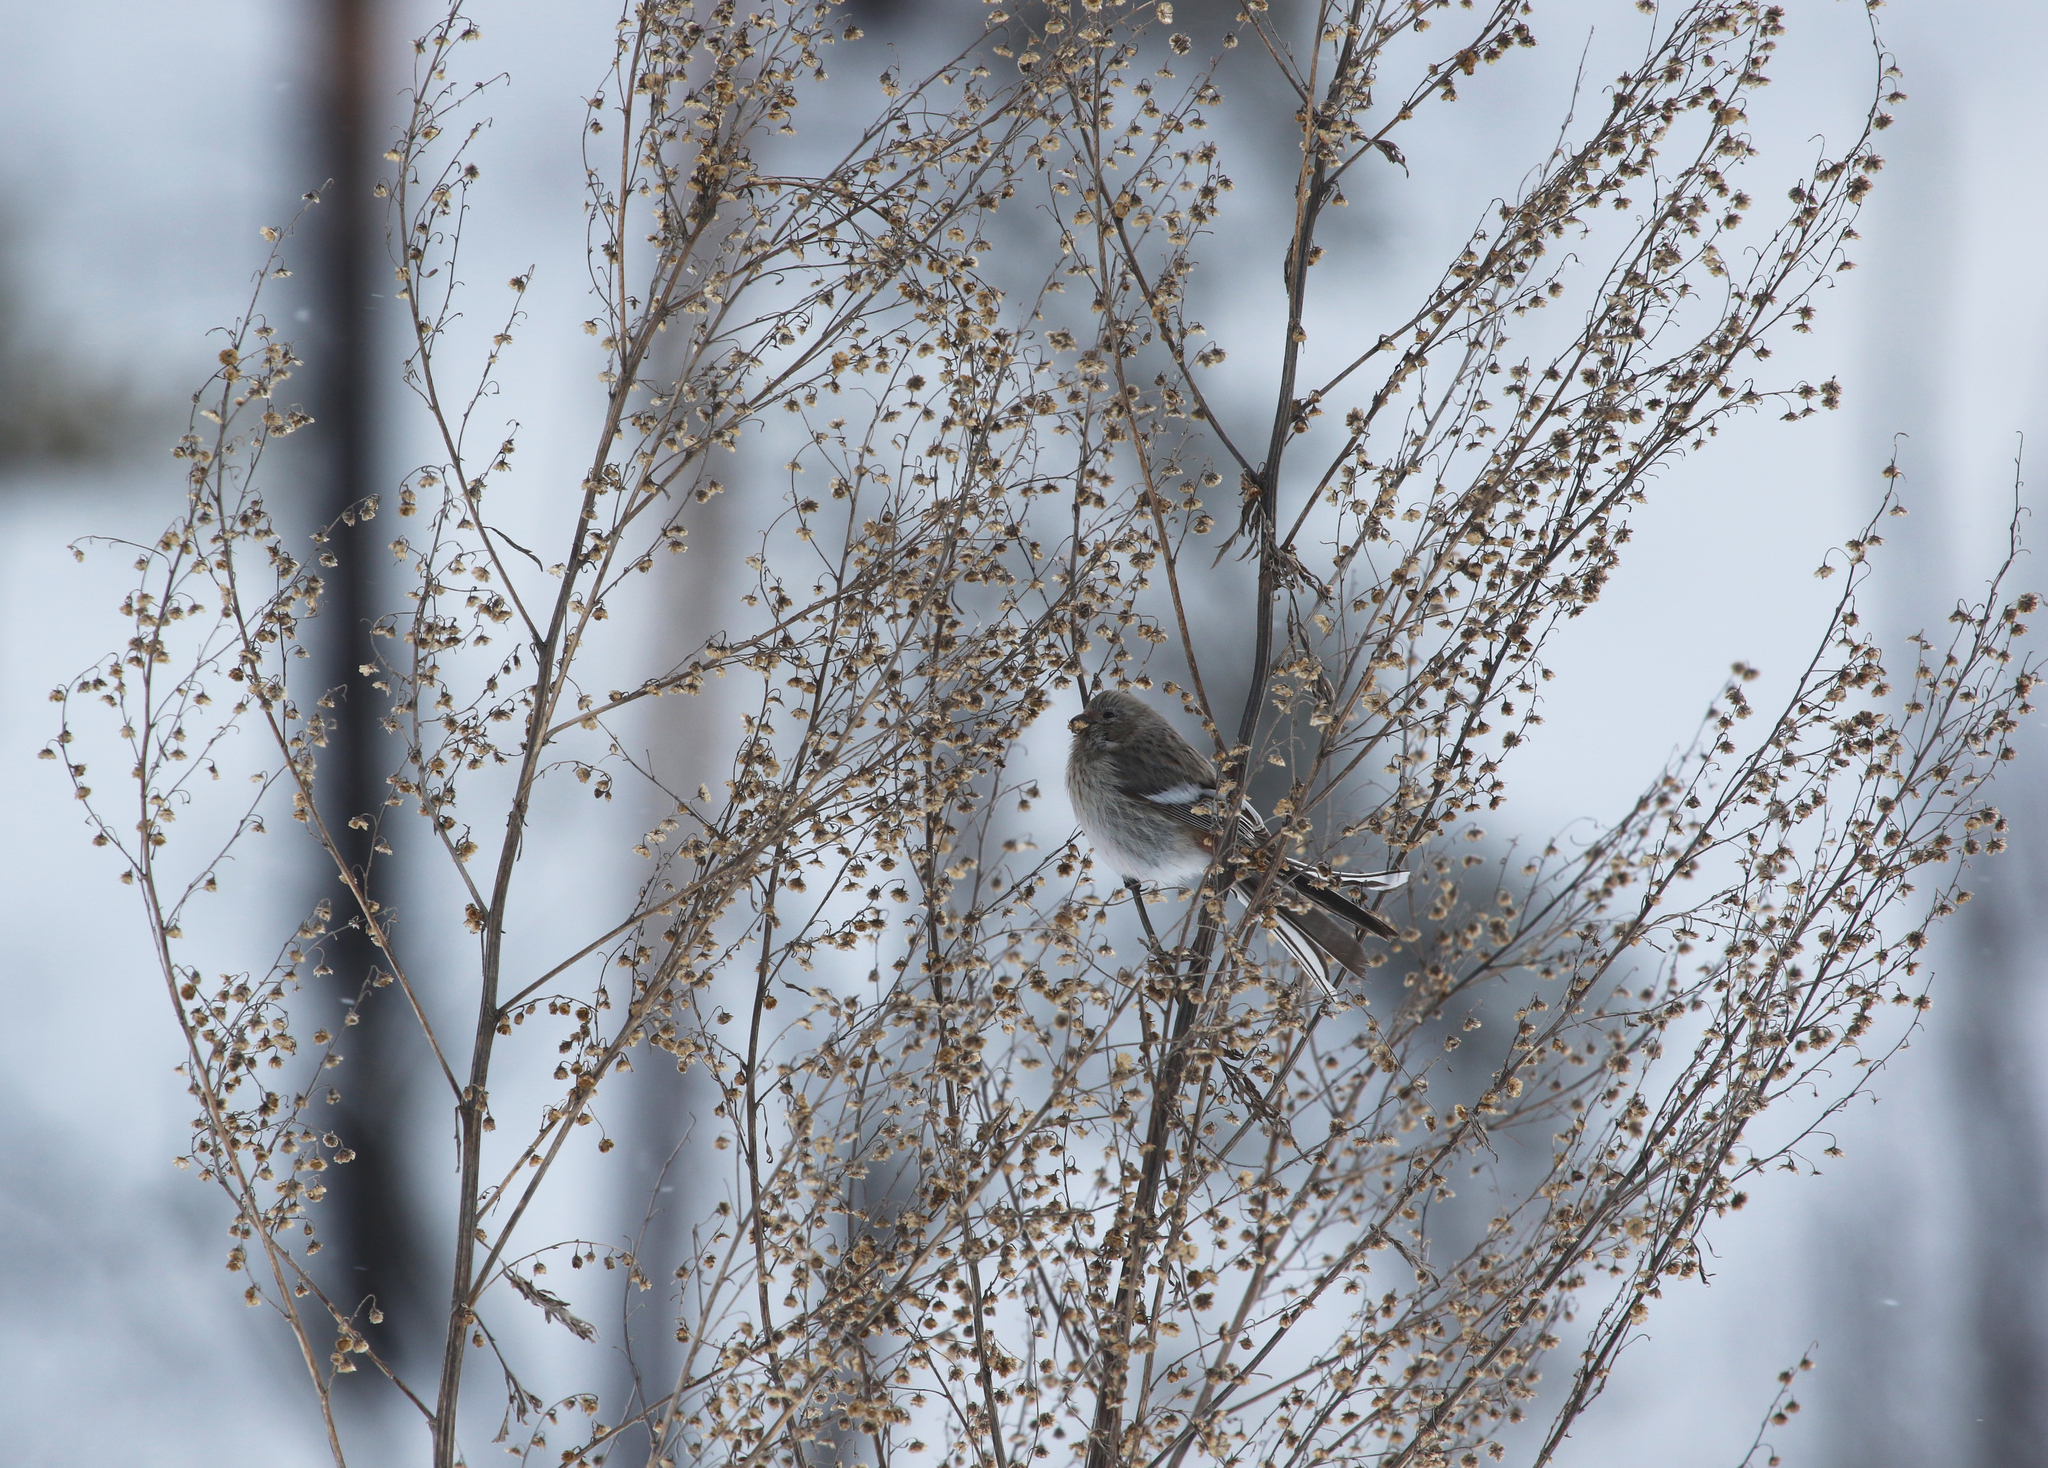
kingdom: Animalia
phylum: Chordata
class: Aves
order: Passeriformes
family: Fringillidae
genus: Carpodacus
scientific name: Carpodacus sibiricus
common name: Long-tailed rosefinch
